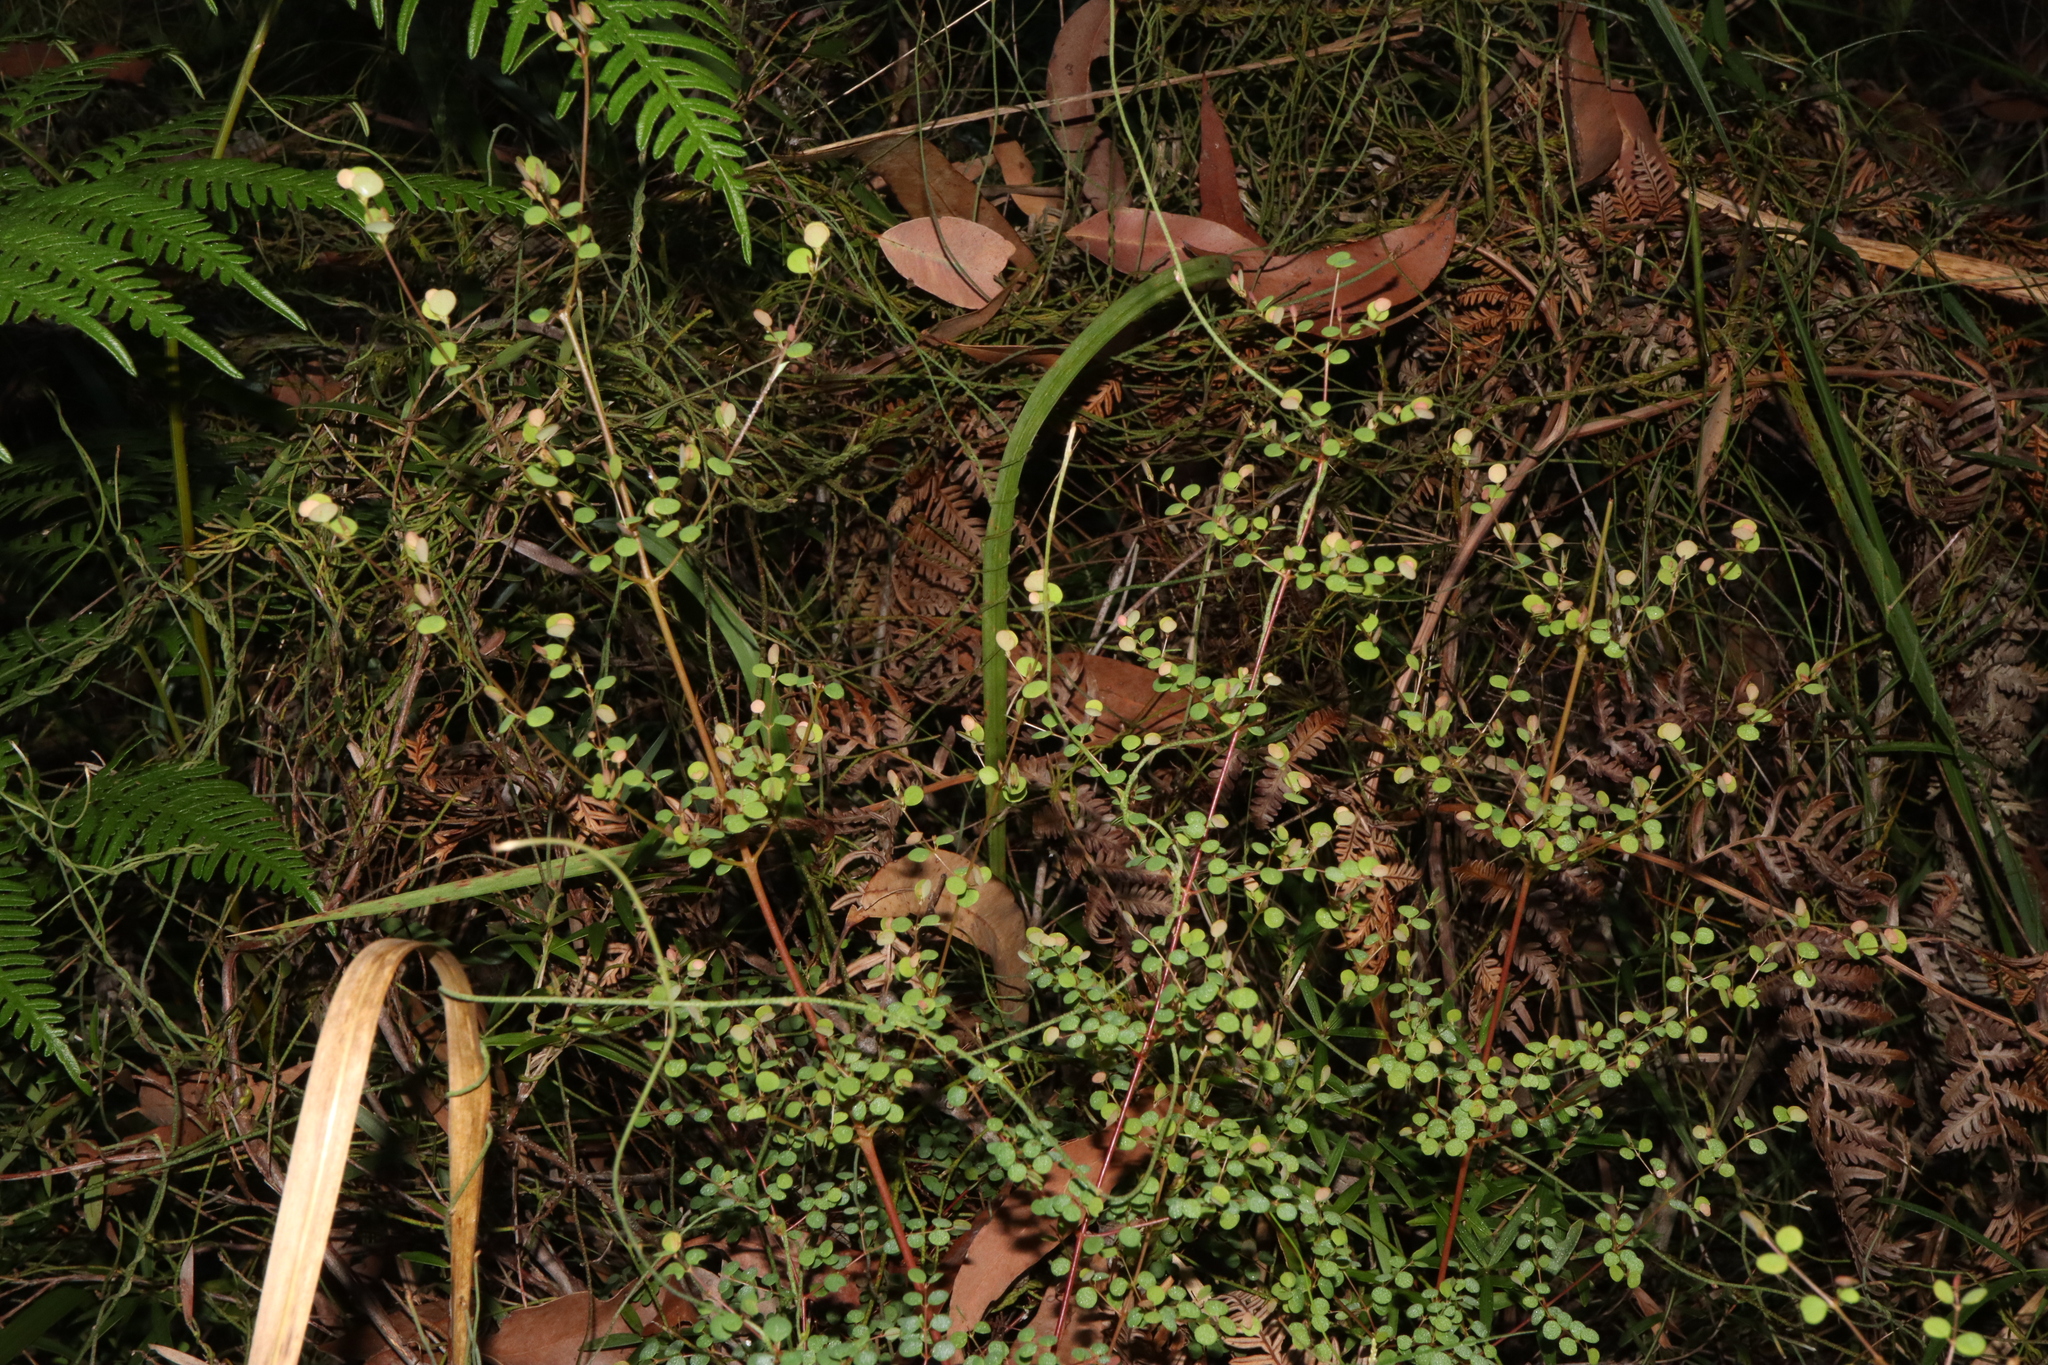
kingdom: Plantae
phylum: Tracheophyta
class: Magnoliopsida
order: Fabales
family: Fabaceae
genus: Bossiaea
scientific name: Bossiaea lenticularis
